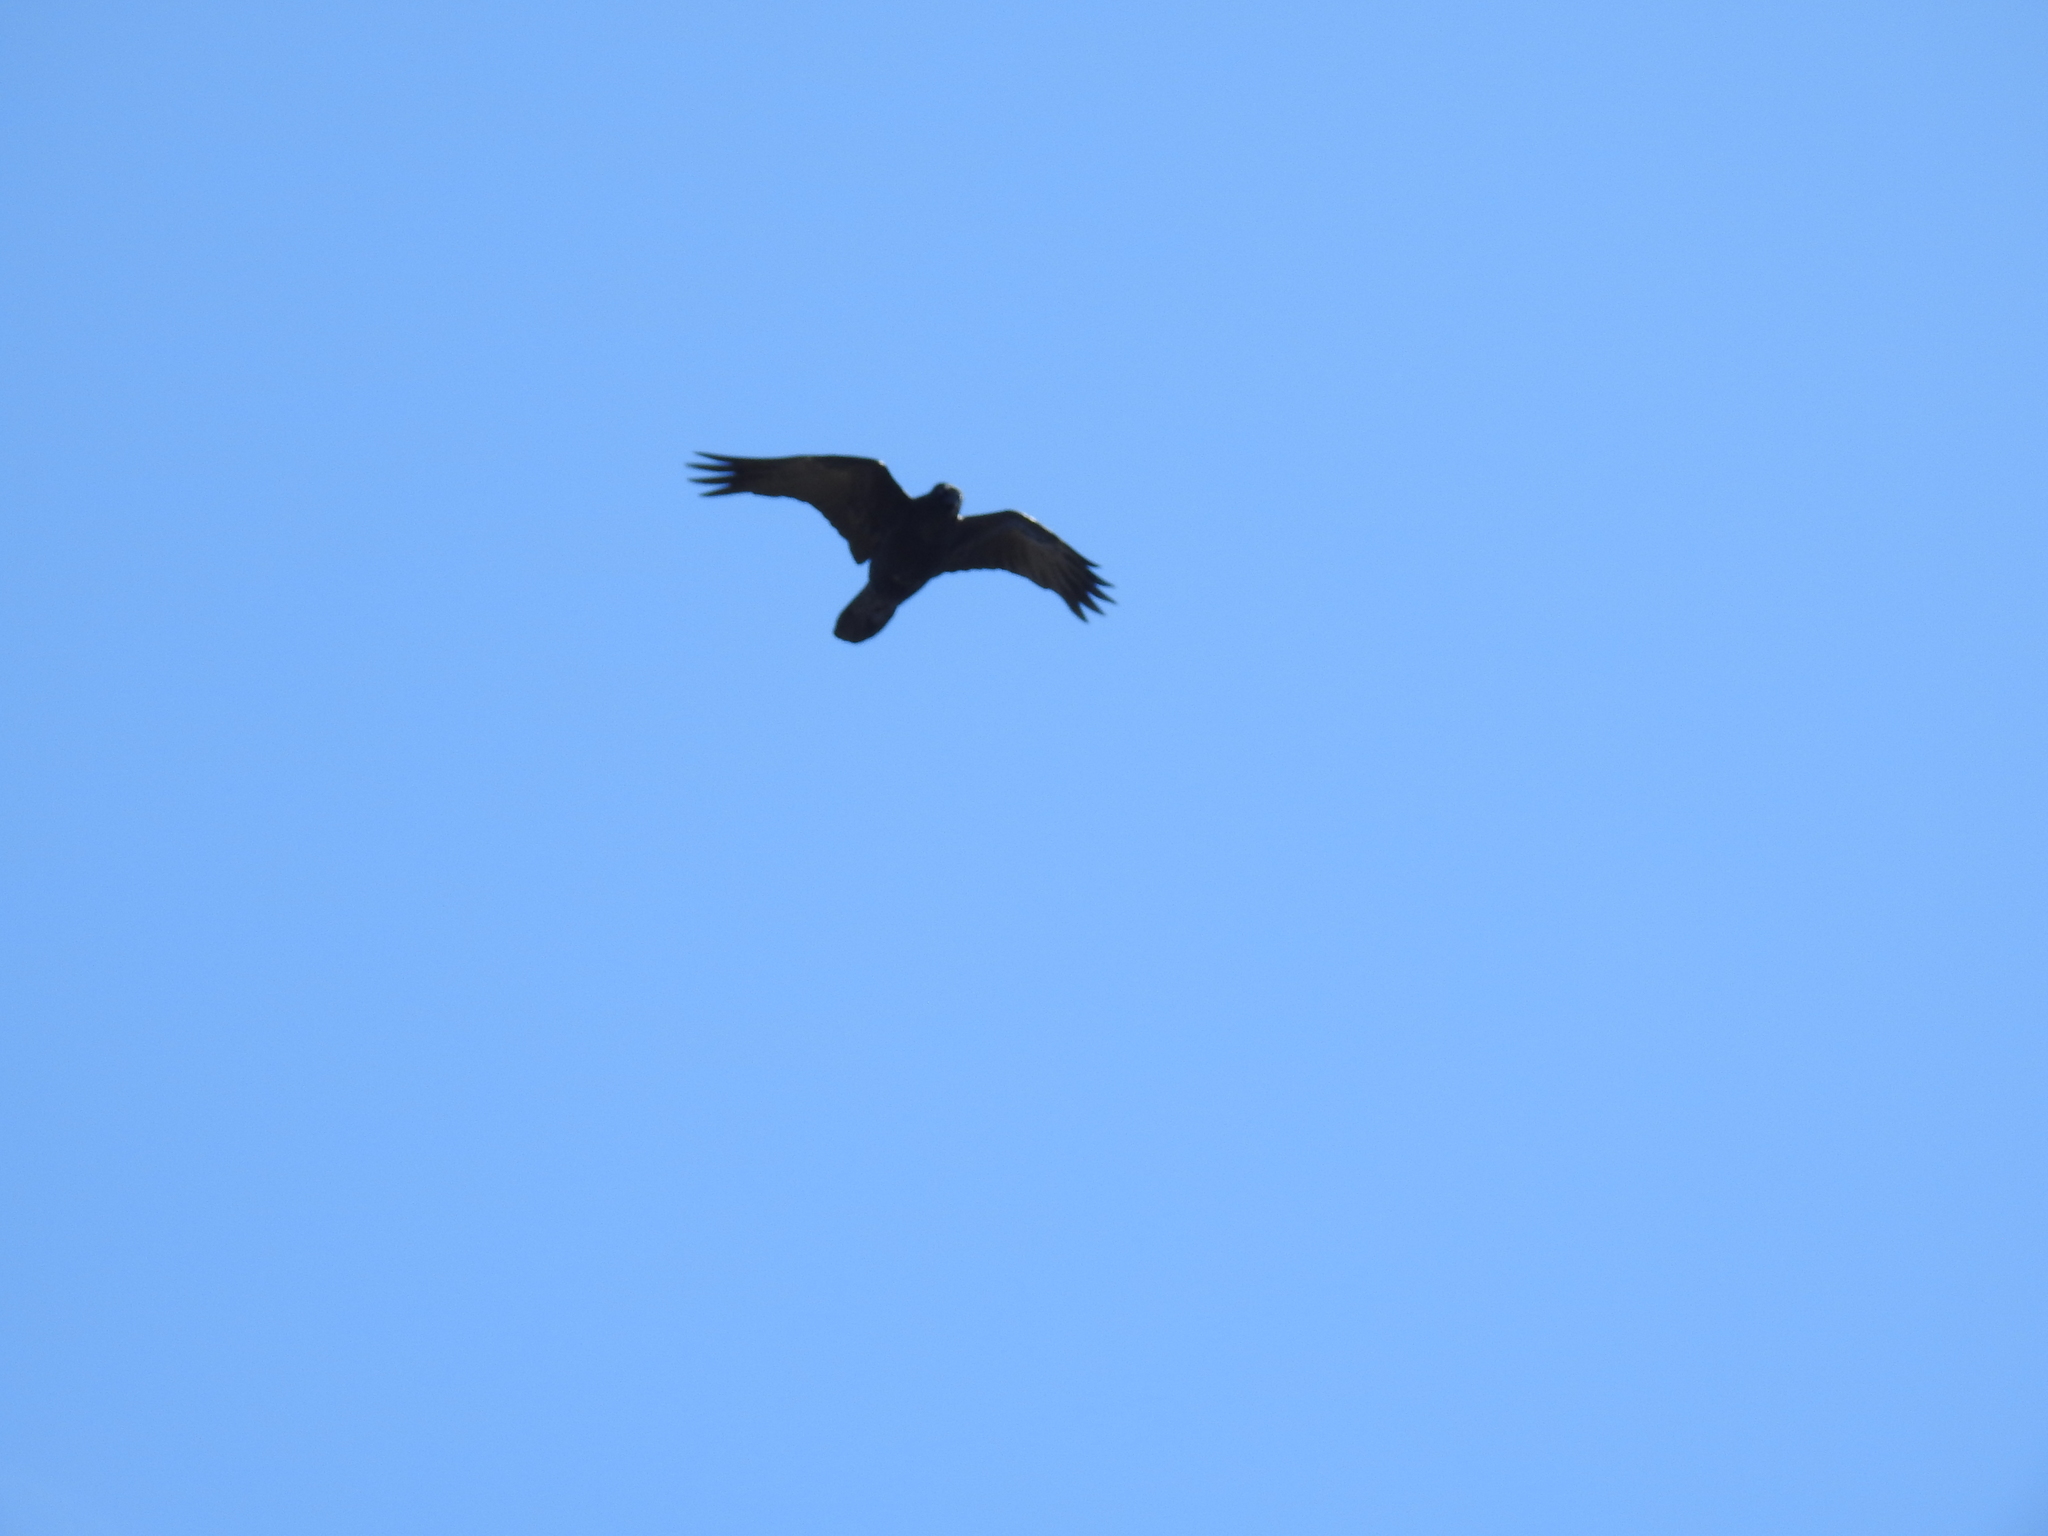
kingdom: Animalia
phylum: Chordata
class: Aves
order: Passeriformes
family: Corvidae
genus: Corvus
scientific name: Corvus corax
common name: Common raven
